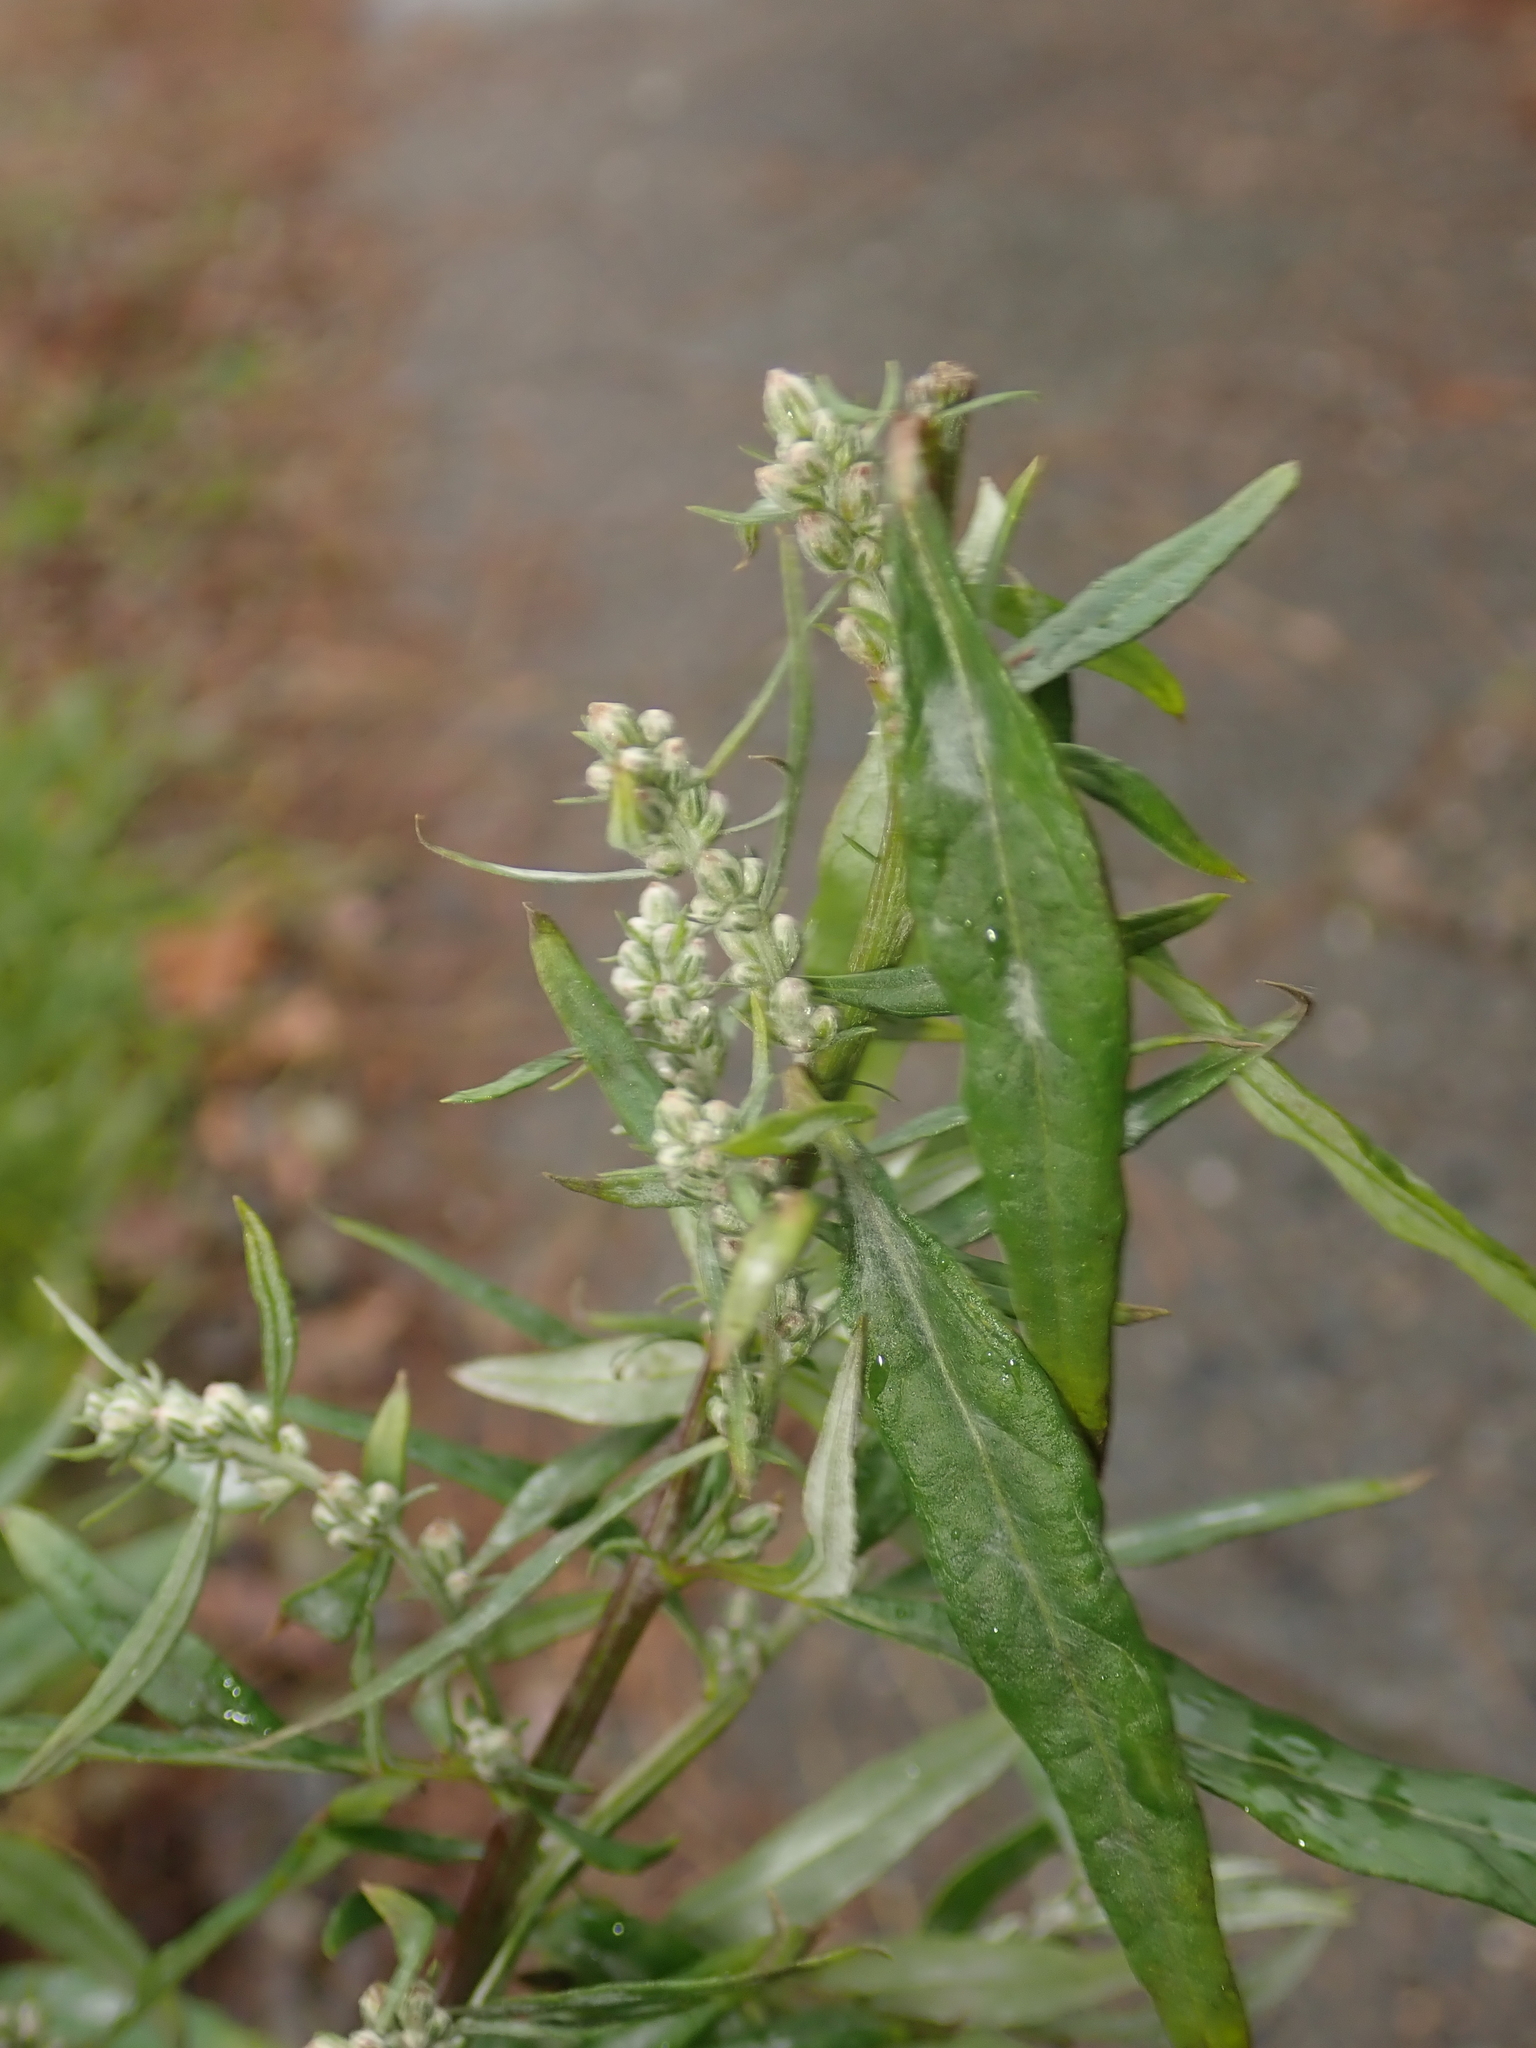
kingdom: Plantae
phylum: Tracheophyta
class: Magnoliopsida
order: Asterales
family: Asteraceae
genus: Artemisia
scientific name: Artemisia vulgaris
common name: Mugwort
